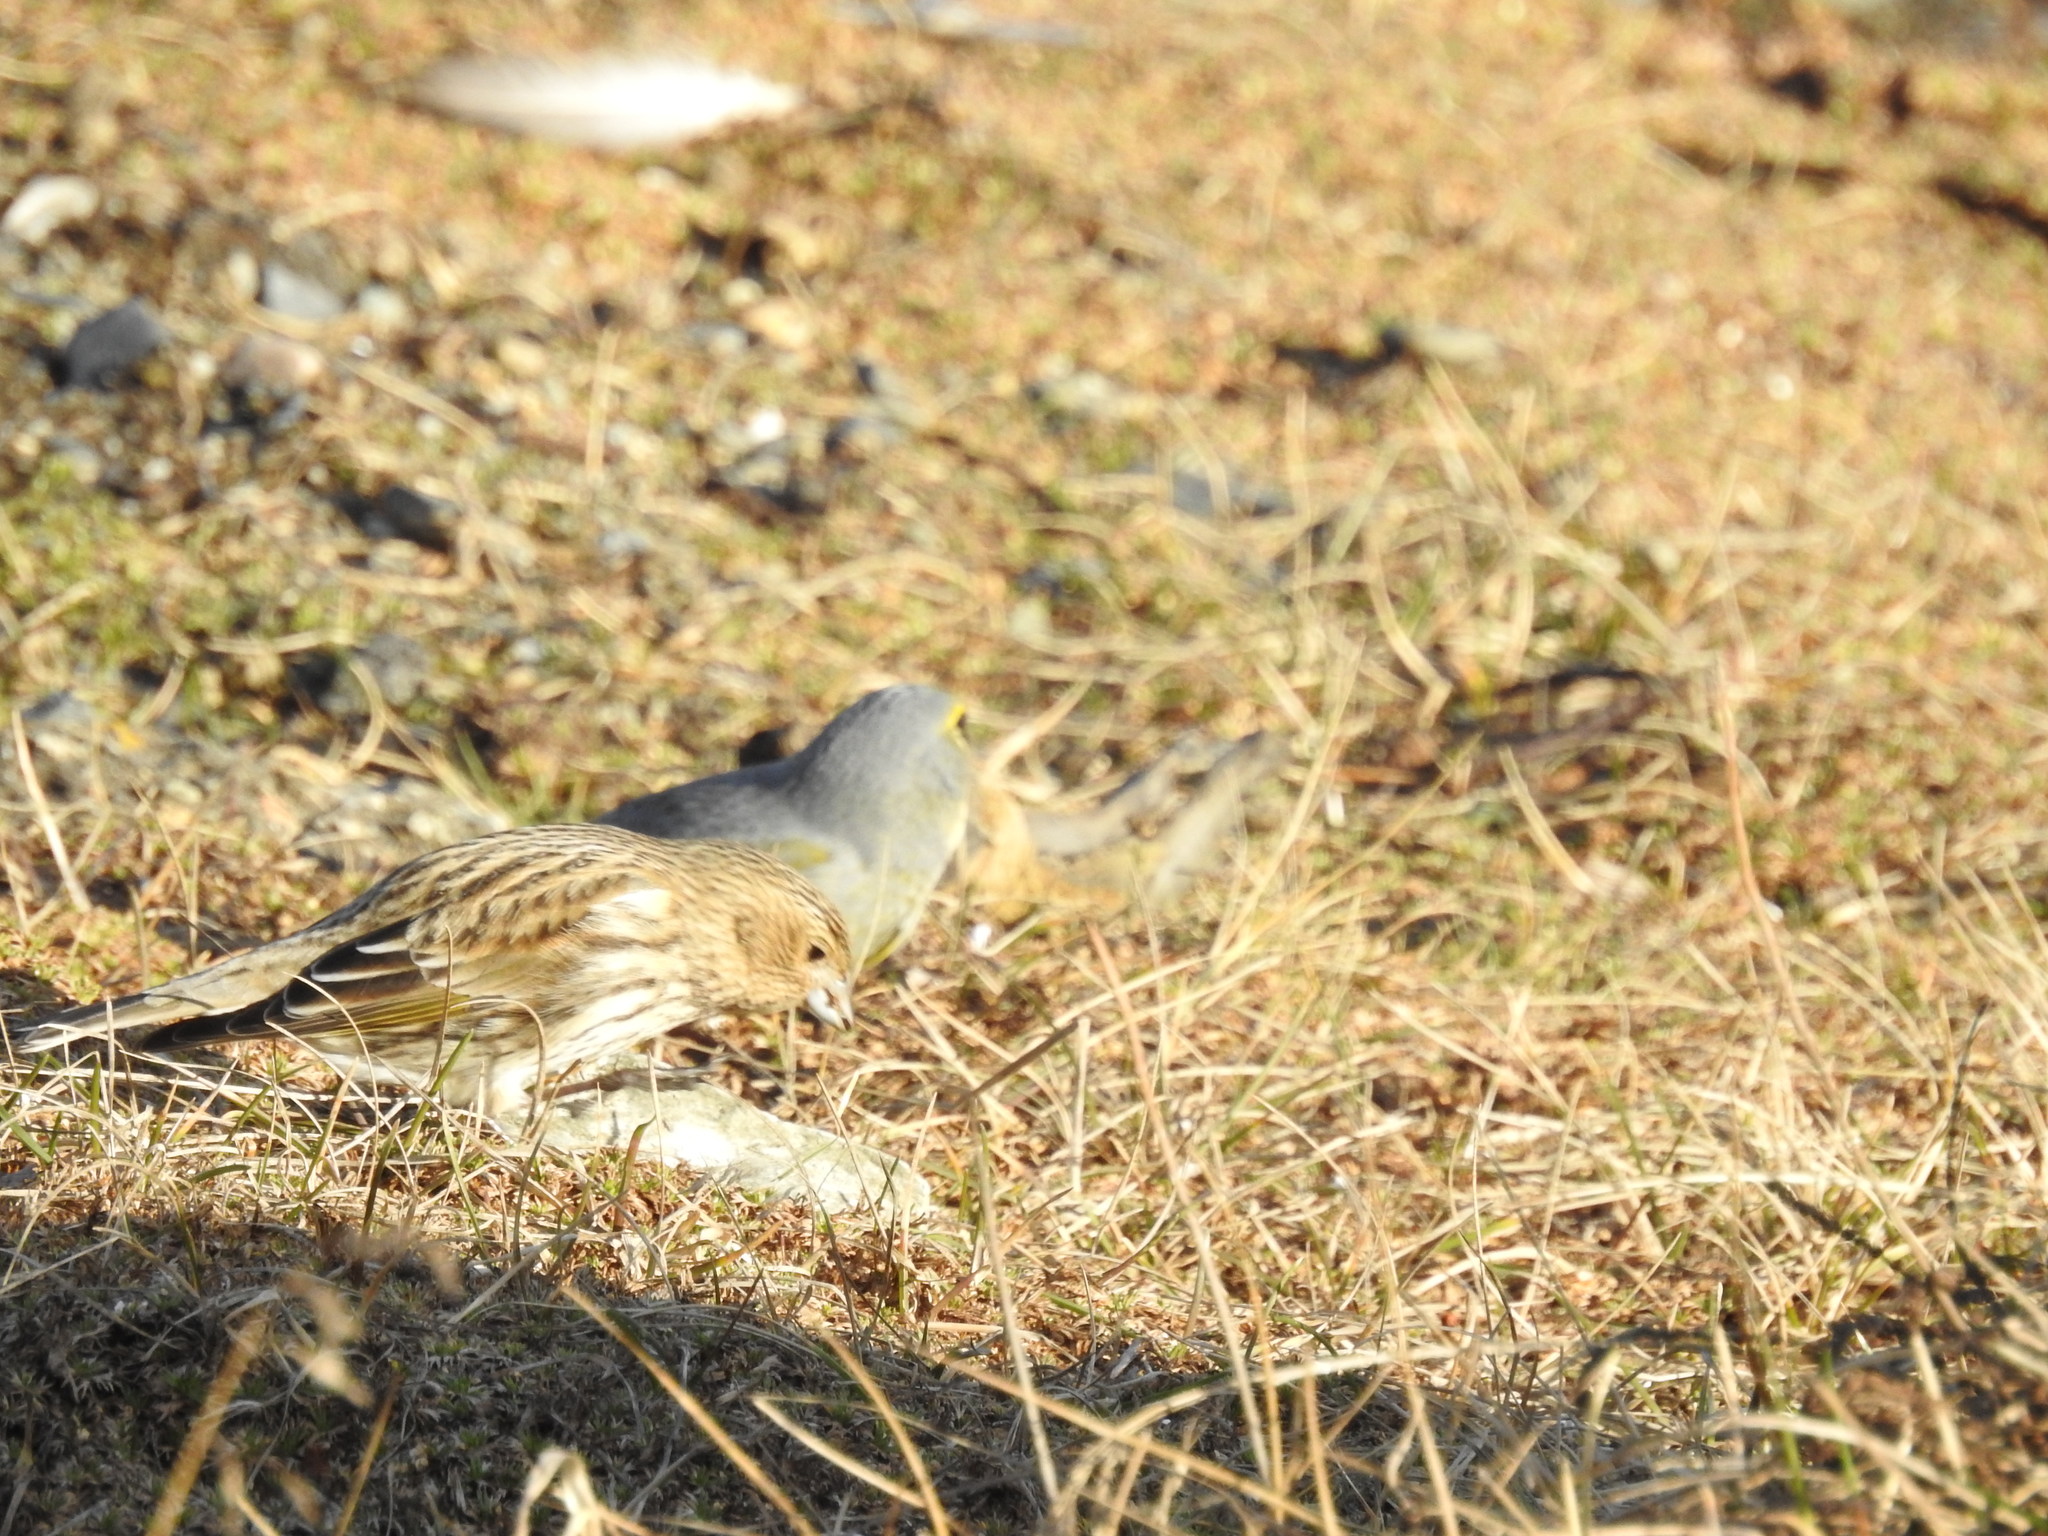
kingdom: Animalia
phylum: Chordata
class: Aves
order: Passeriformes
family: Thraupidae
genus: Melanodera
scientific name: Melanodera xanthogramma
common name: Yellow-bridled finch
